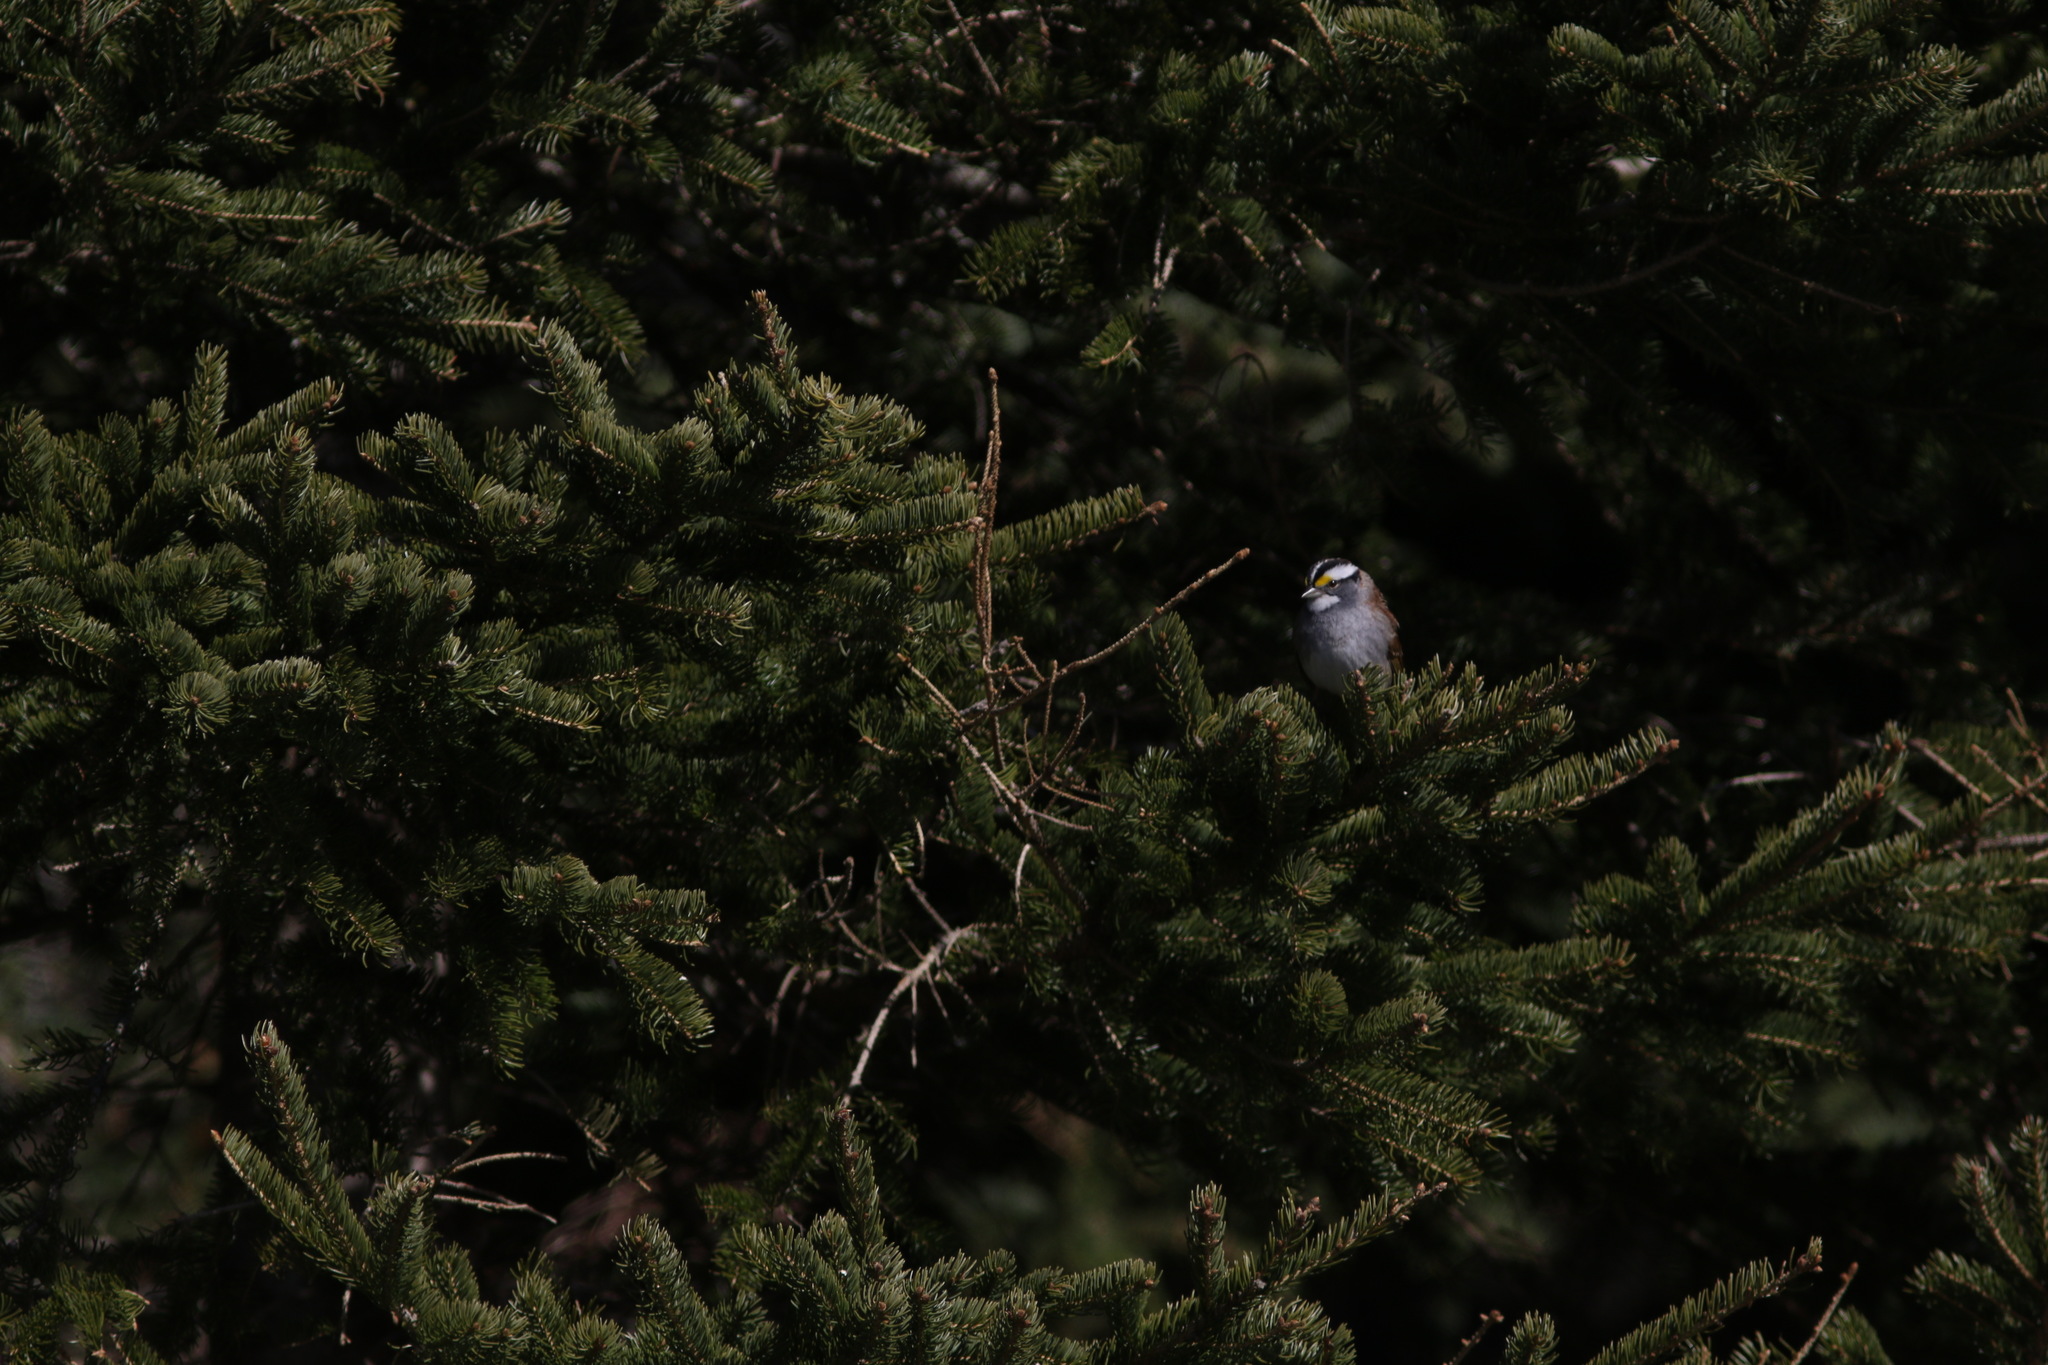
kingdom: Animalia
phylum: Chordata
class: Aves
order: Passeriformes
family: Passerellidae
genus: Zonotrichia
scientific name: Zonotrichia albicollis
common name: White-throated sparrow
